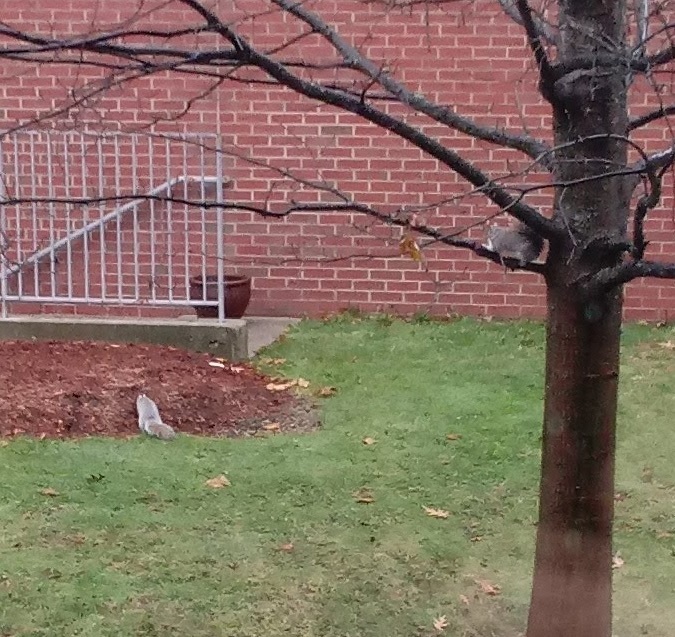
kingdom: Animalia
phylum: Chordata
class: Mammalia
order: Rodentia
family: Sciuridae
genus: Sciurus
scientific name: Sciurus carolinensis
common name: Eastern gray squirrel
